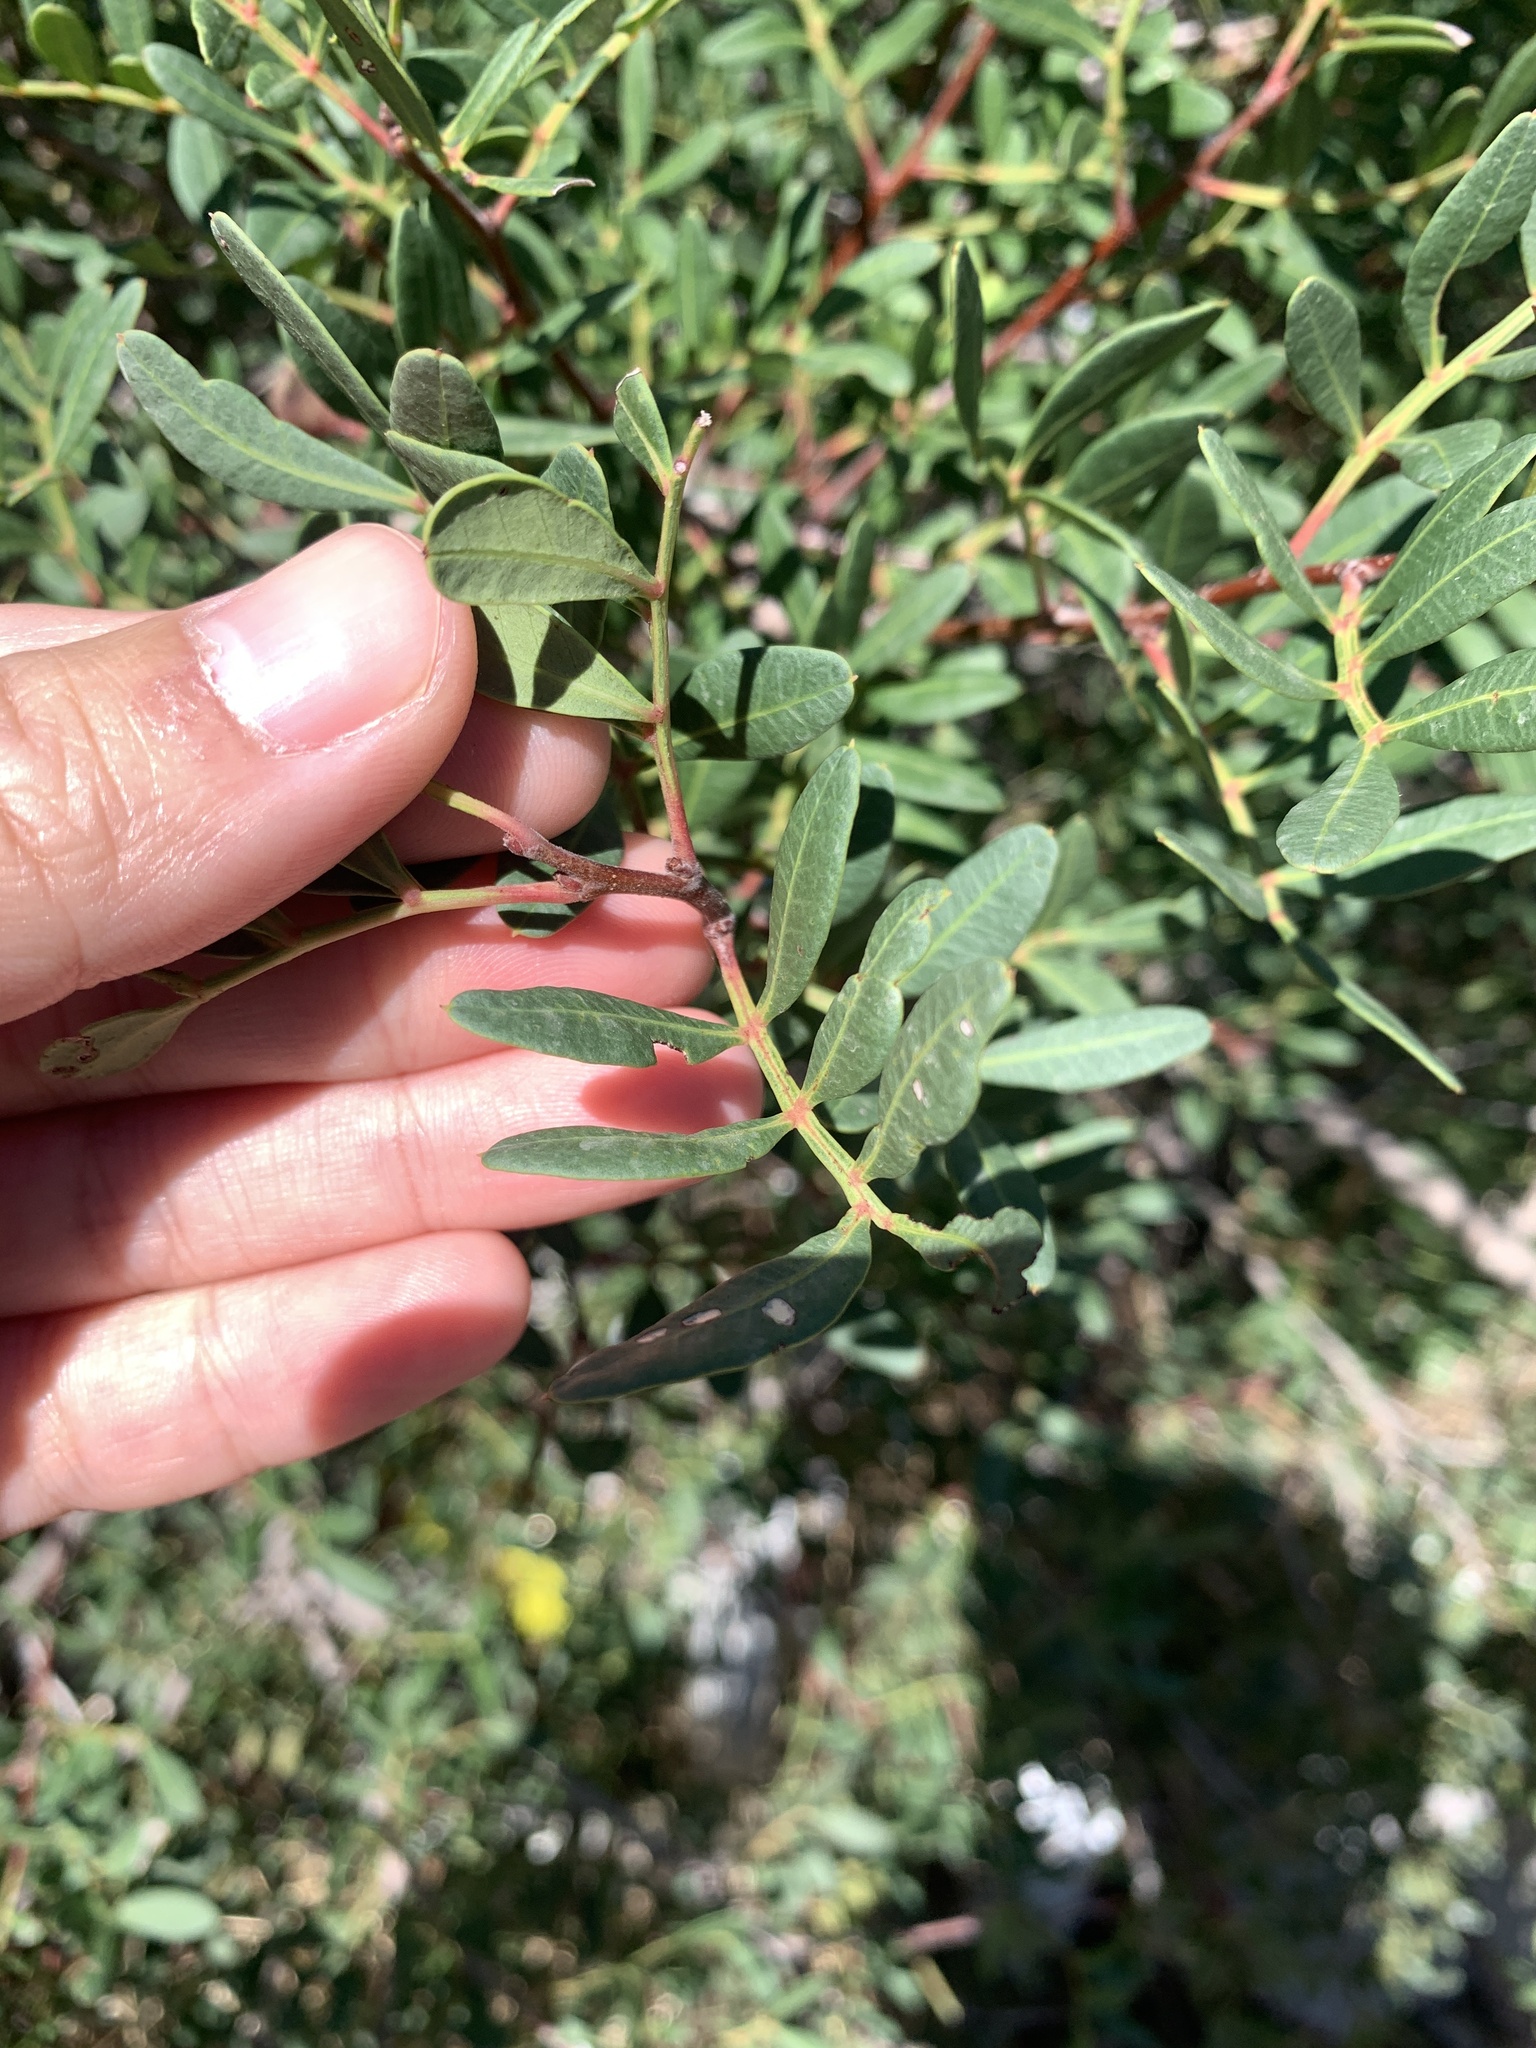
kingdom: Plantae
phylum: Tracheophyta
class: Magnoliopsida
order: Sapindales
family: Anacardiaceae
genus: Pistacia
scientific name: Pistacia lentiscus
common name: Lentisk
